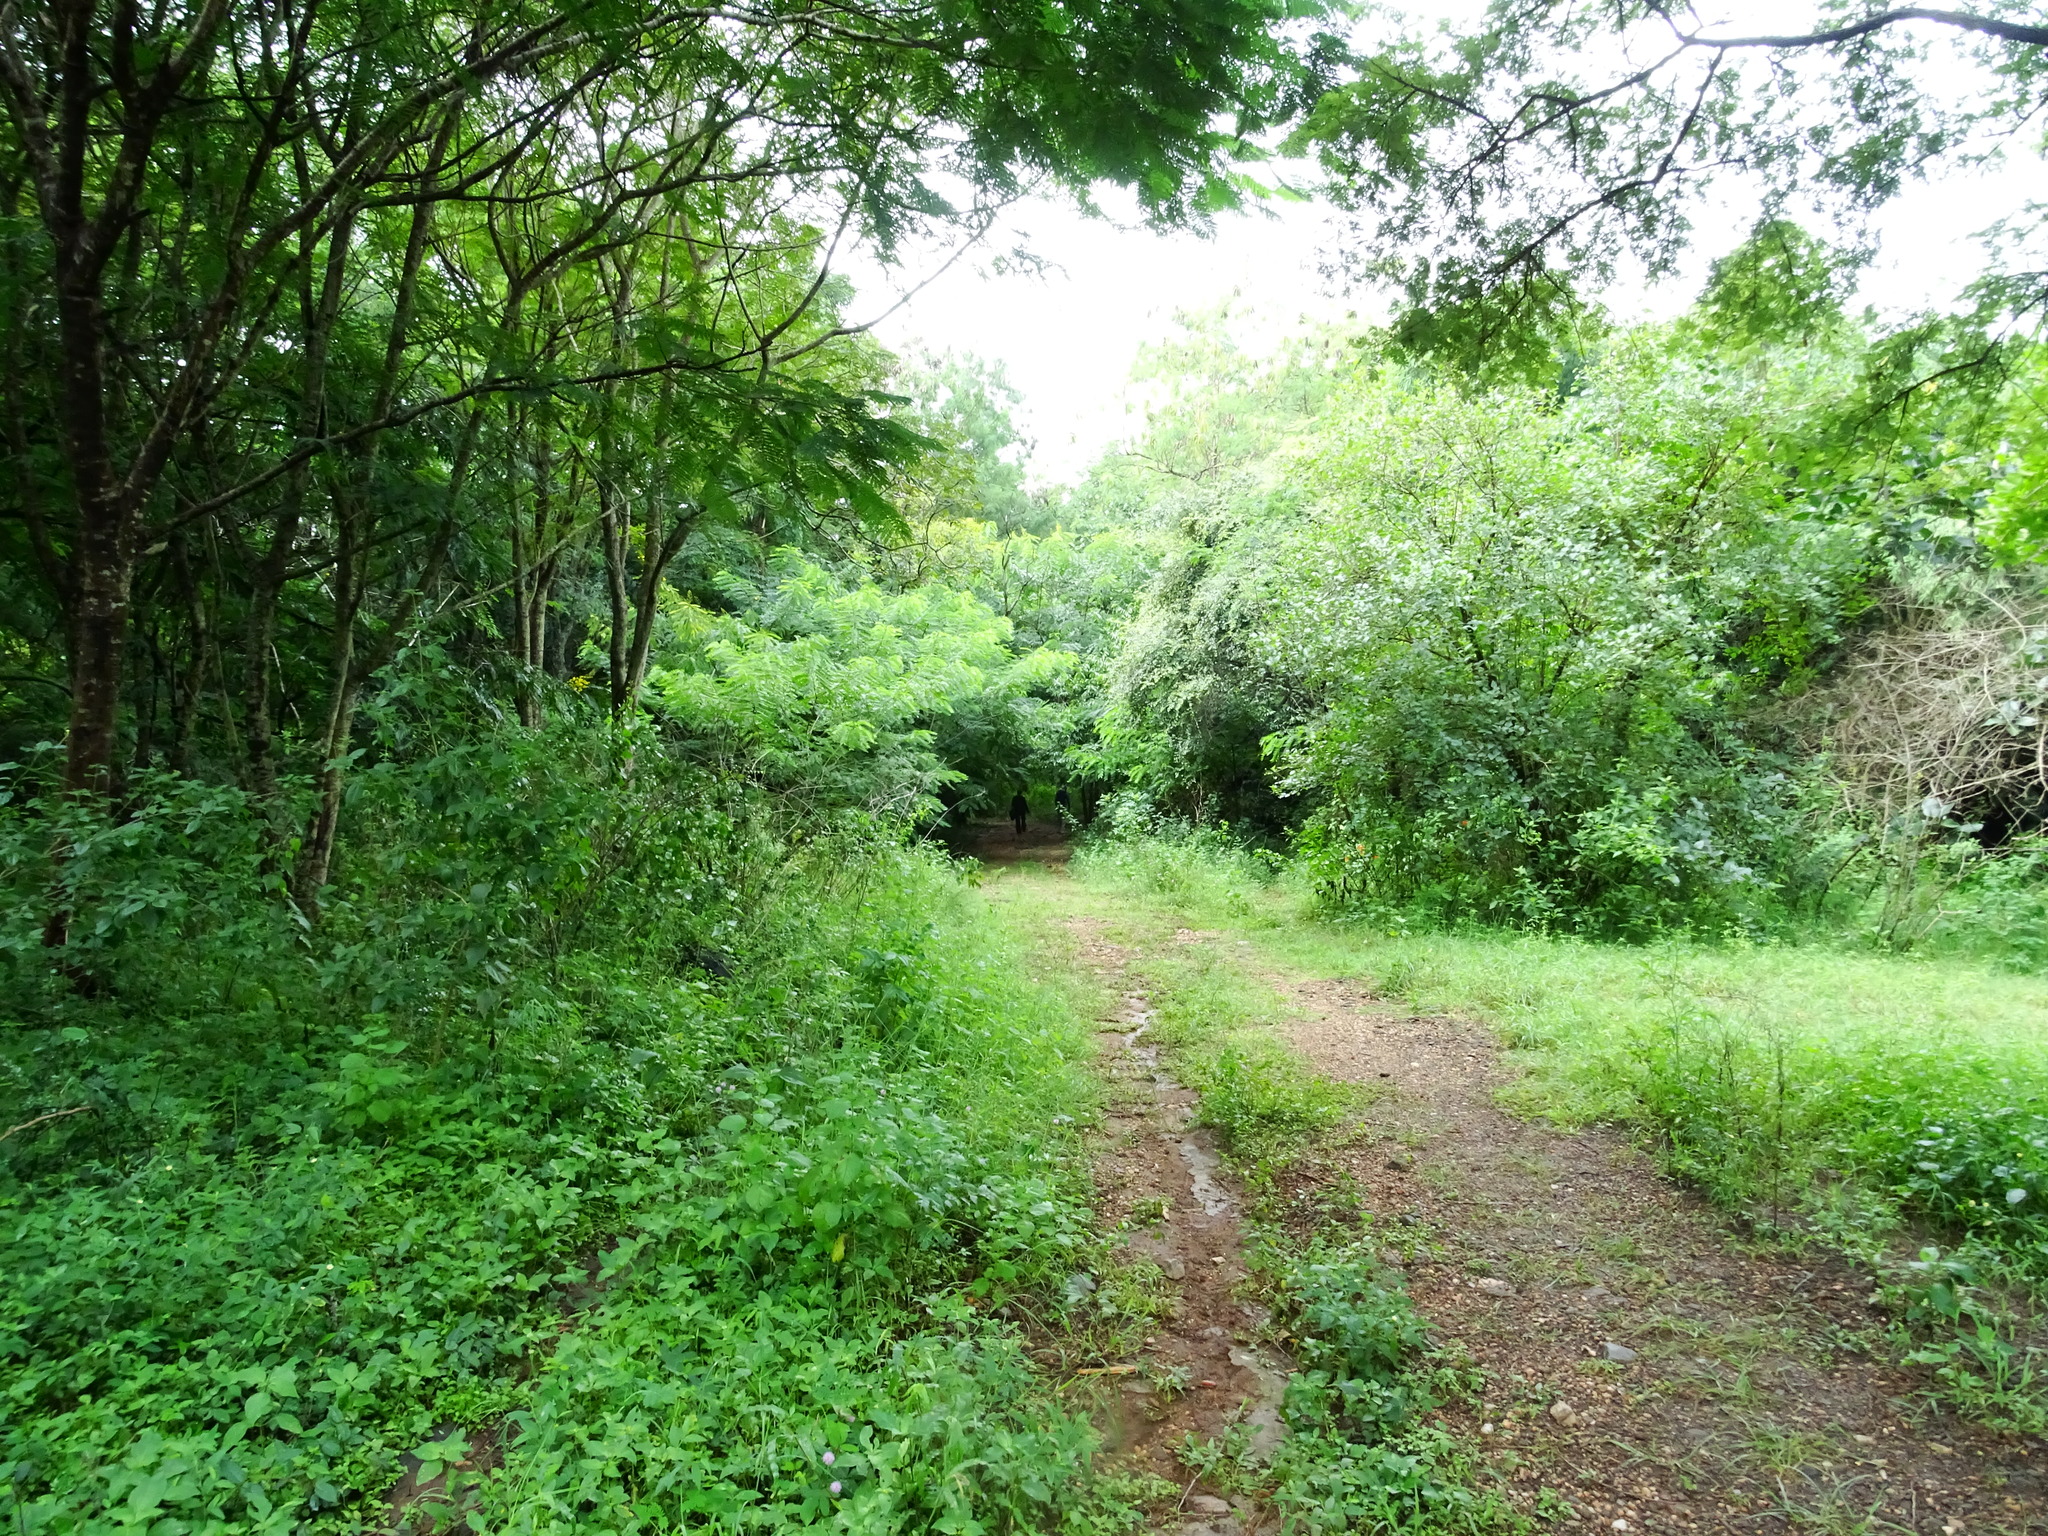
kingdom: Plantae
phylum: Tracheophyta
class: Liliopsida
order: Dioscoreales
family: Dioscoreaceae
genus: Dioscorea
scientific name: Dioscorea pentaphylla
